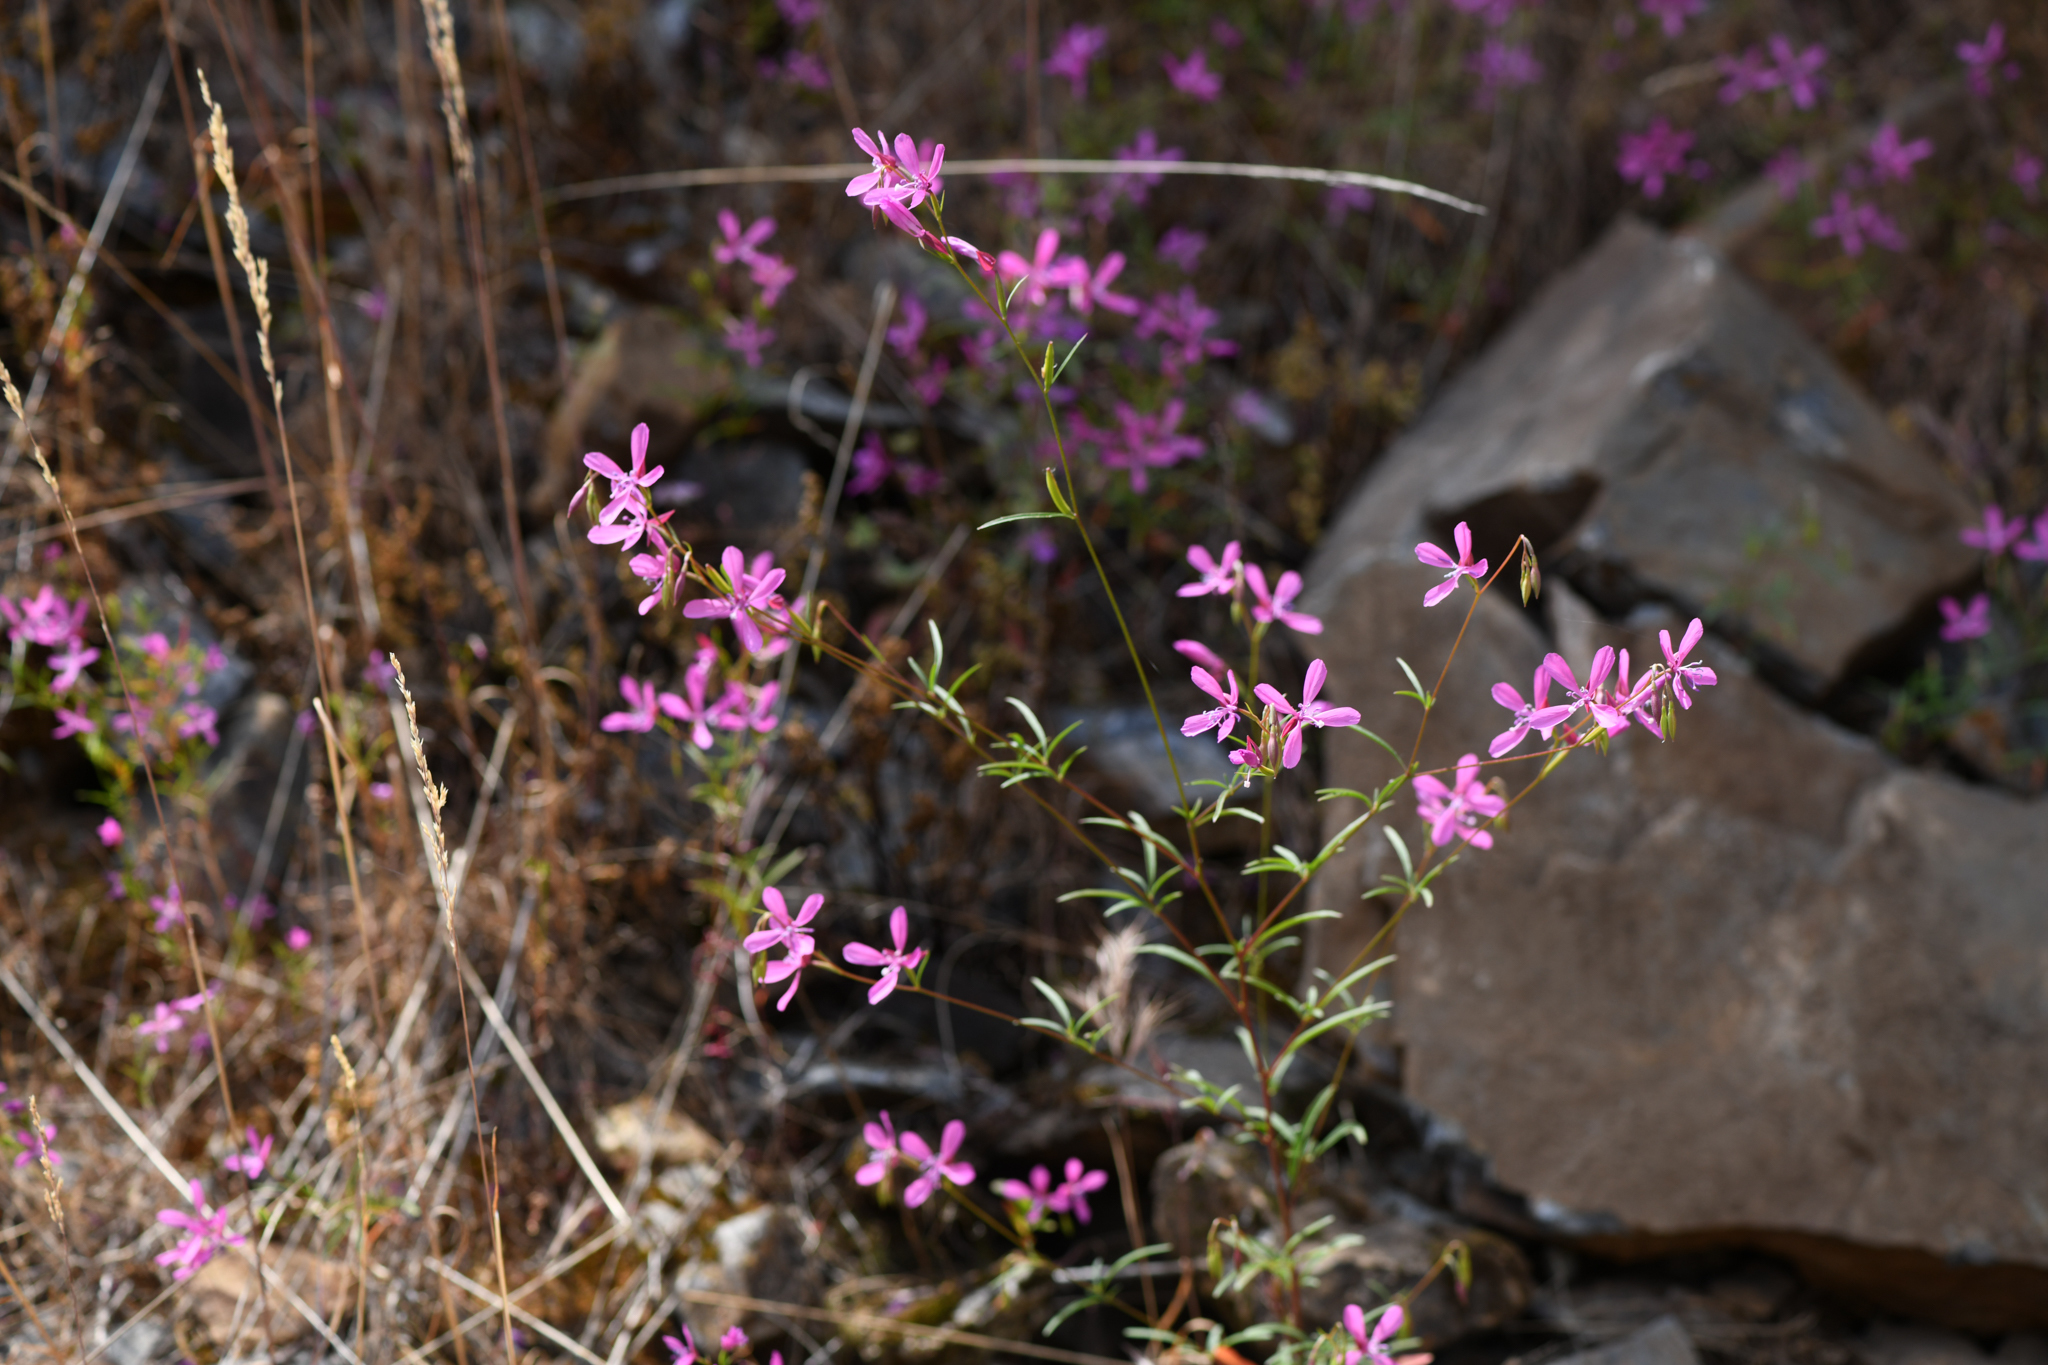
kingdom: Plantae
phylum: Tracheophyta
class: Magnoliopsida
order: Myrtales
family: Onagraceae
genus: Clarkia
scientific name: Clarkia lingulata
